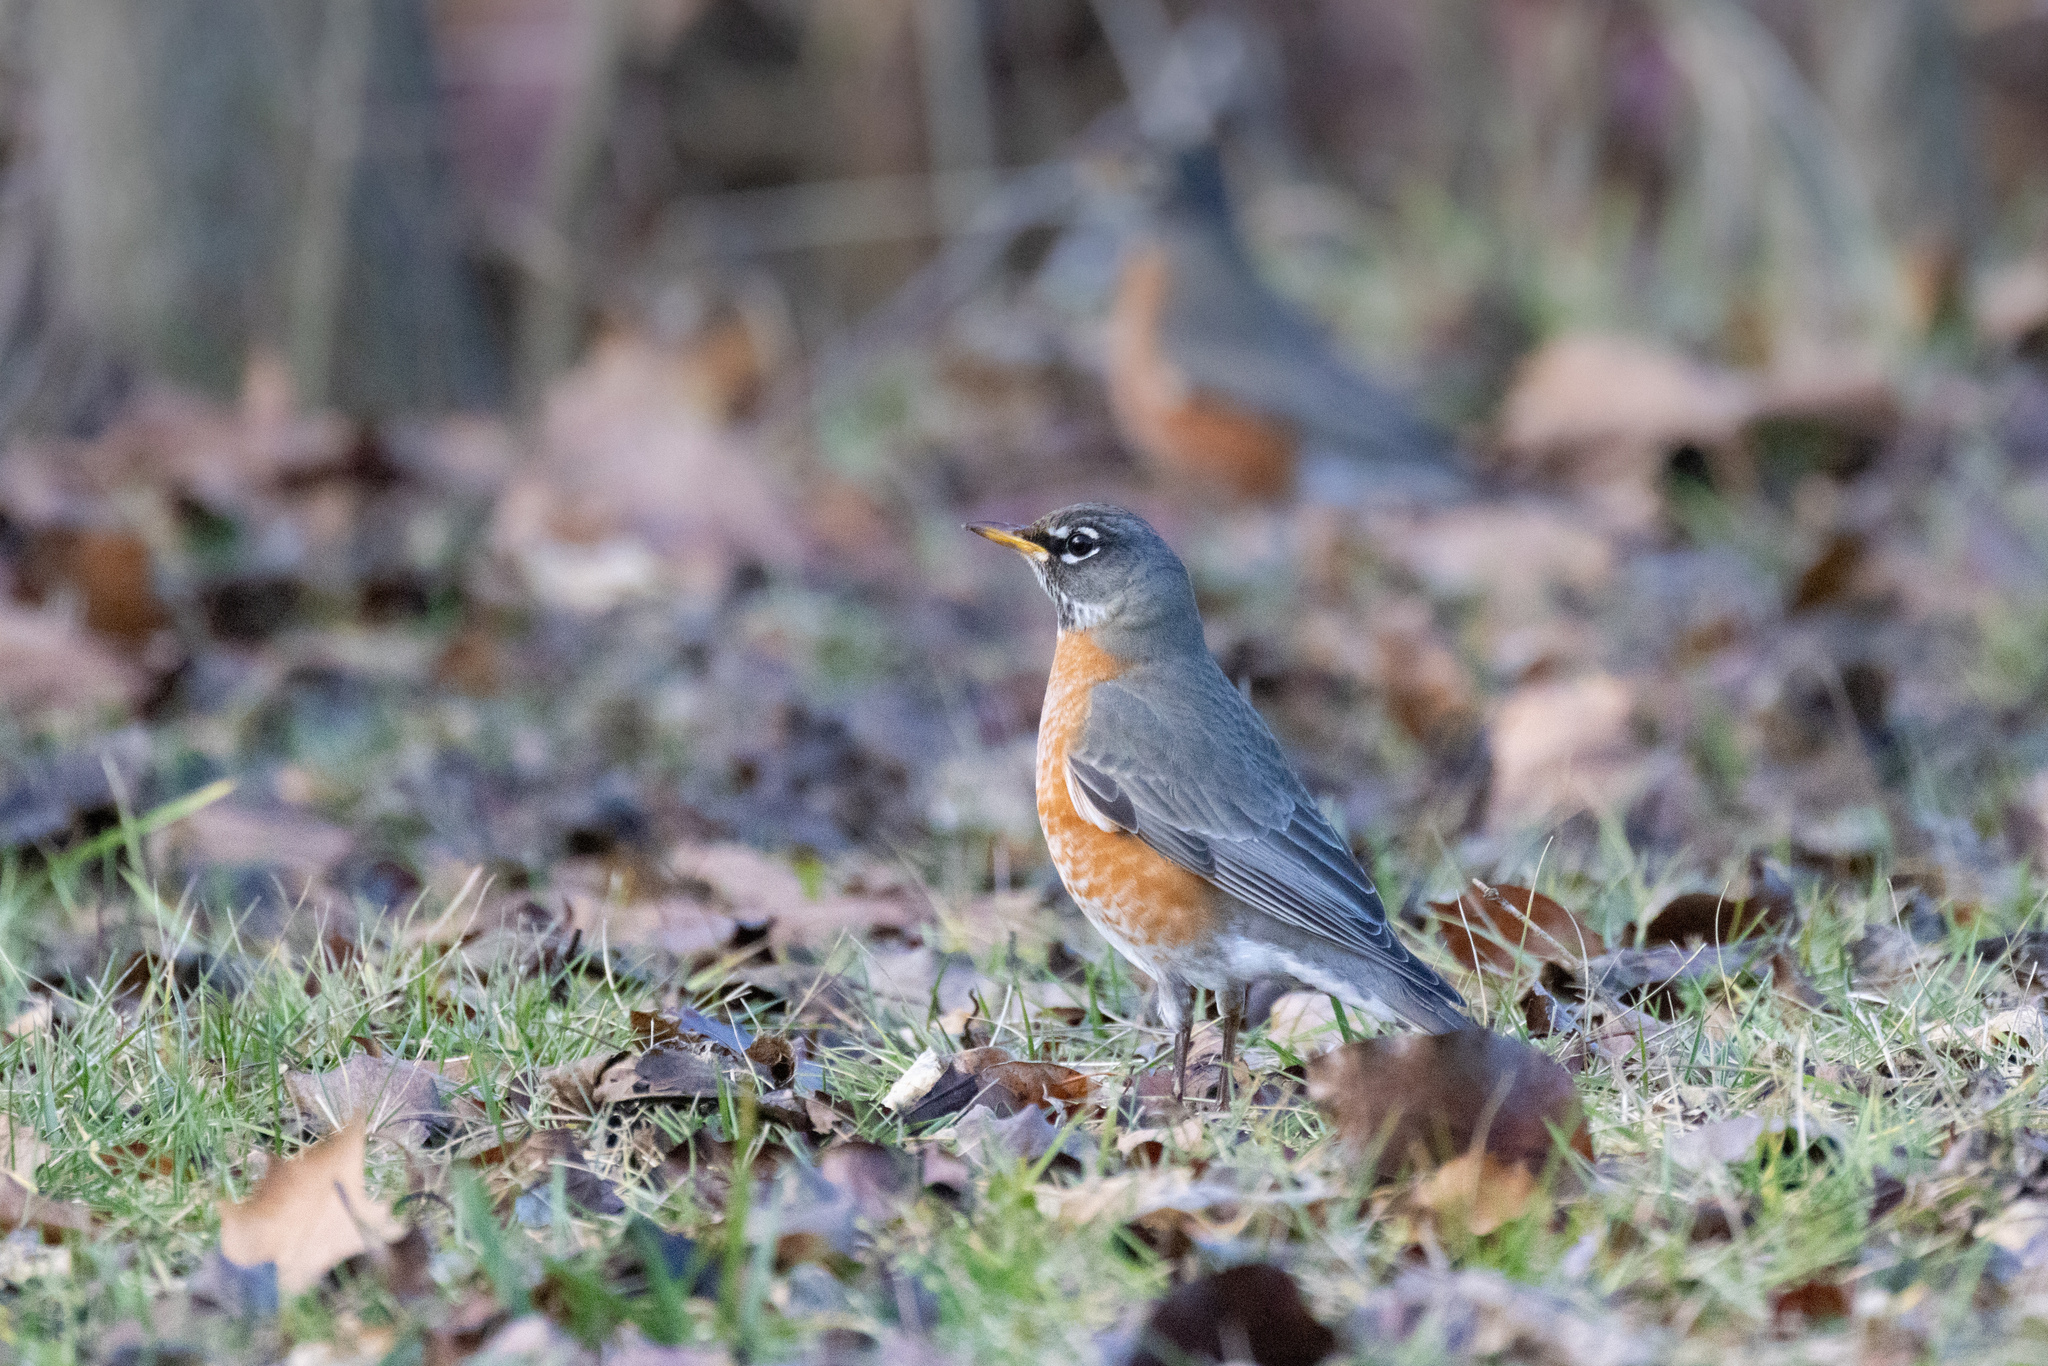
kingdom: Animalia
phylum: Chordata
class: Aves
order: Passeriformes
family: Turdidae
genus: Turdus
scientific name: Turdus migratorius
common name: American robin
